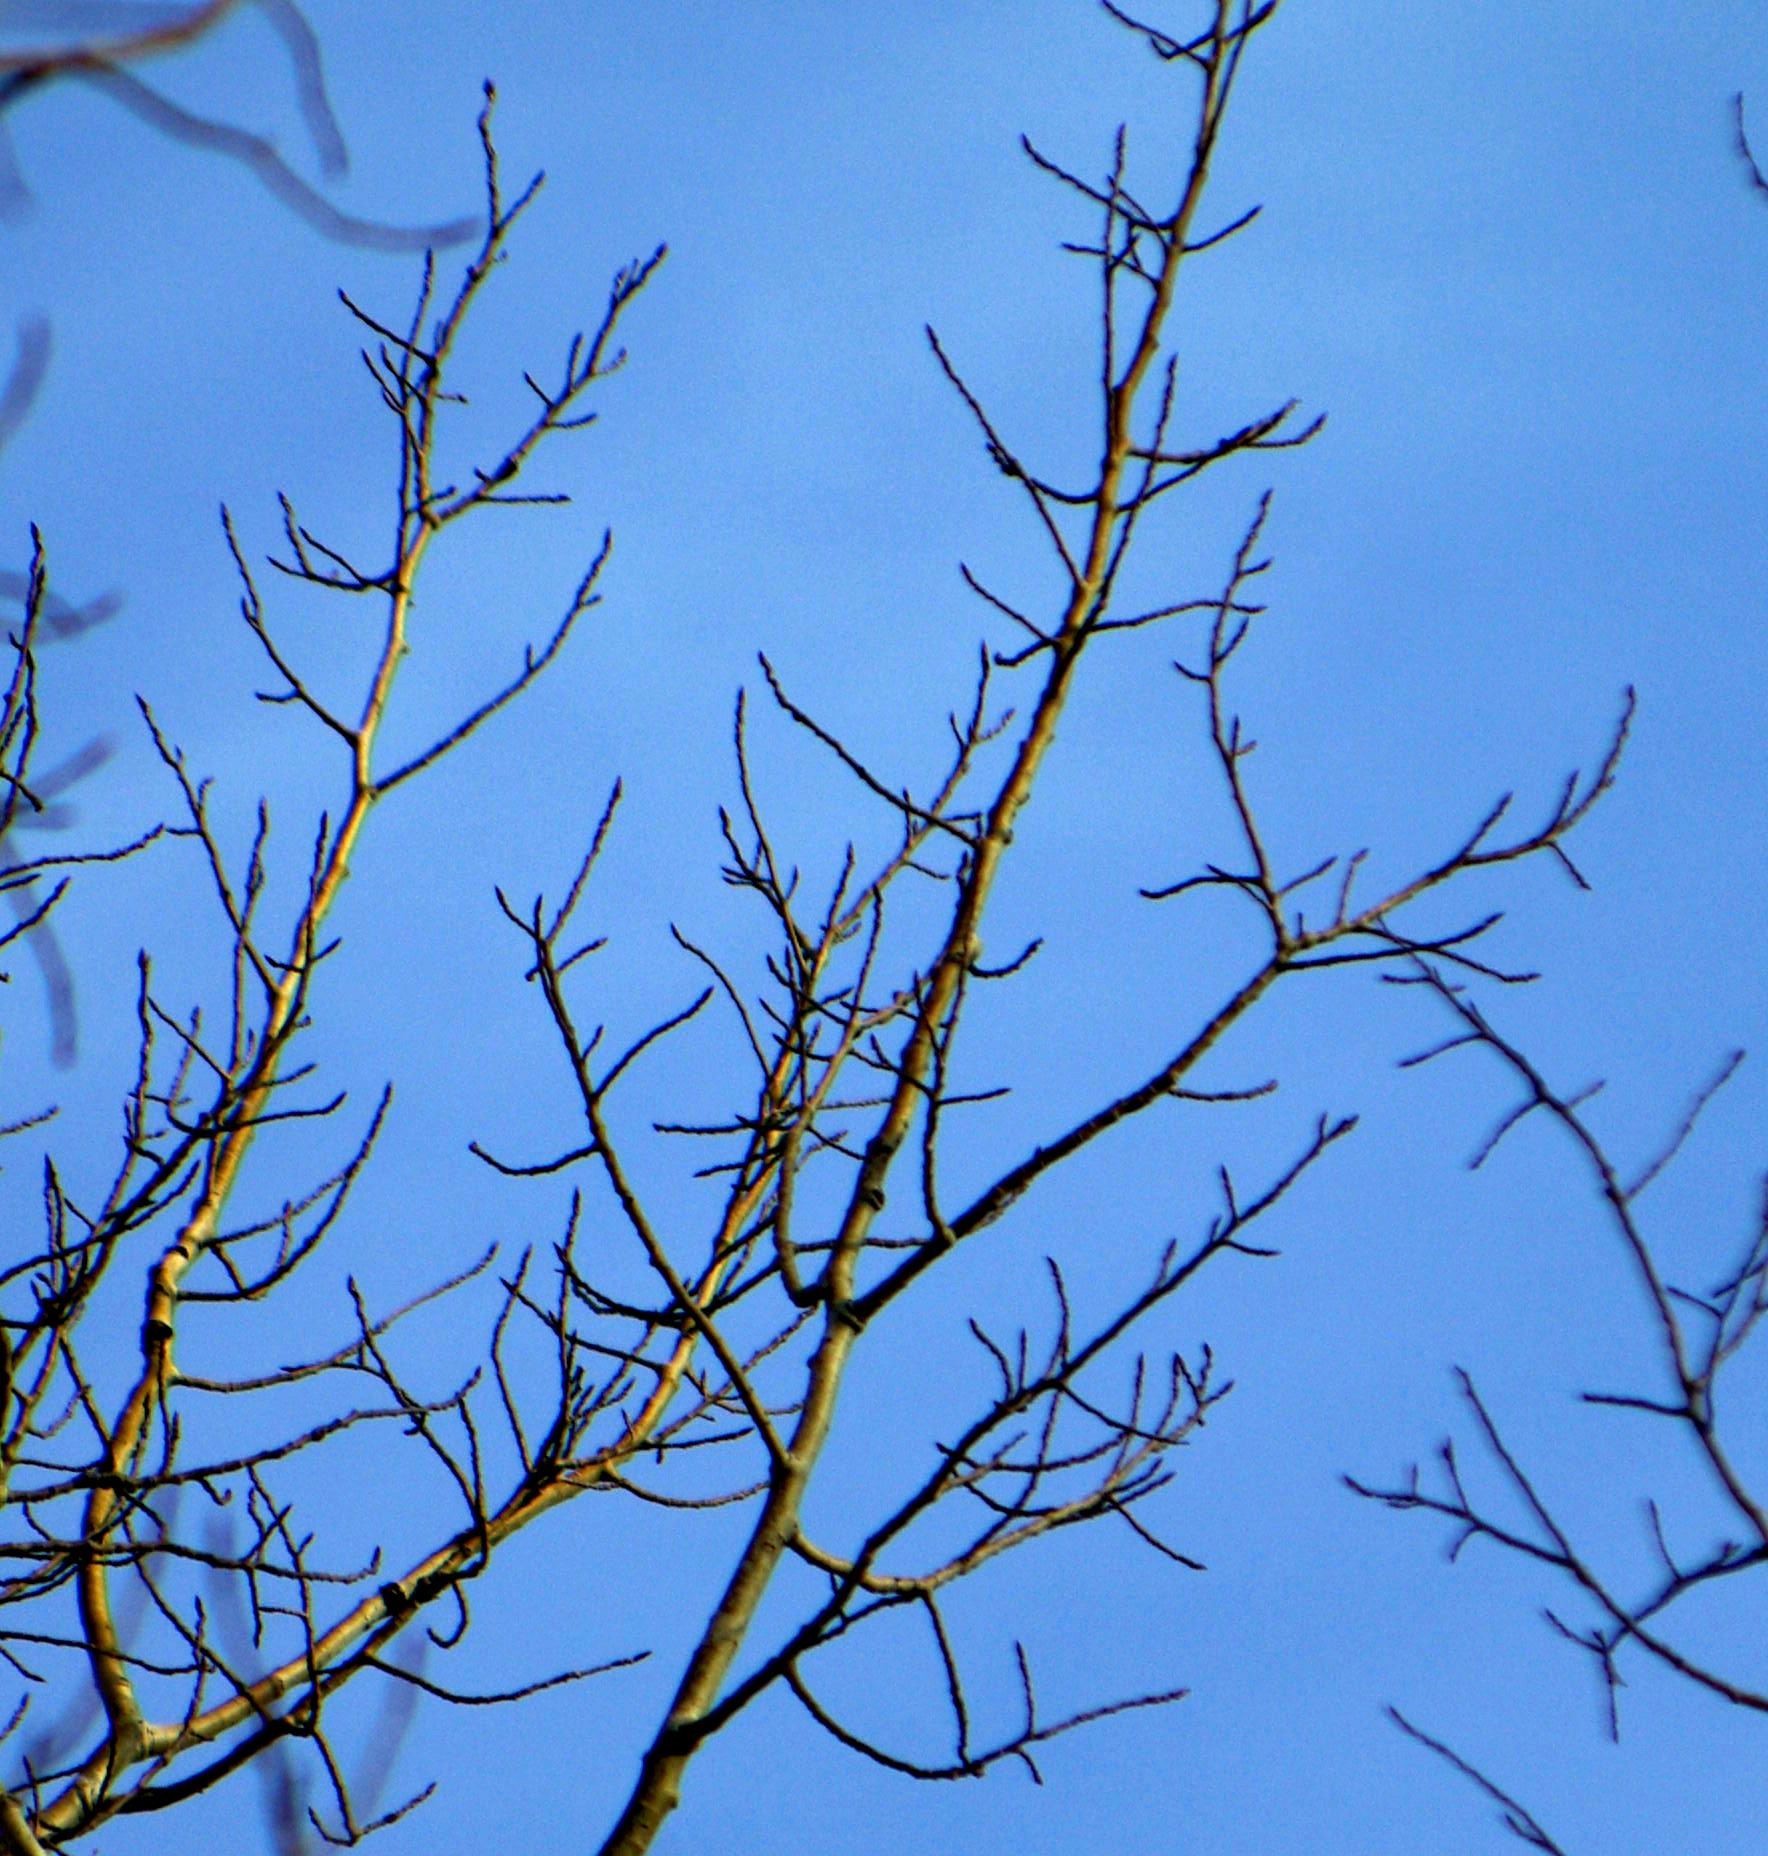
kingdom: Plantae
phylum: Tracheophyta
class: Magnoliopsida
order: Malpighiales
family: Salicaceae
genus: Populus
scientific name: Populus tremuloides
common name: Quaking aspen
